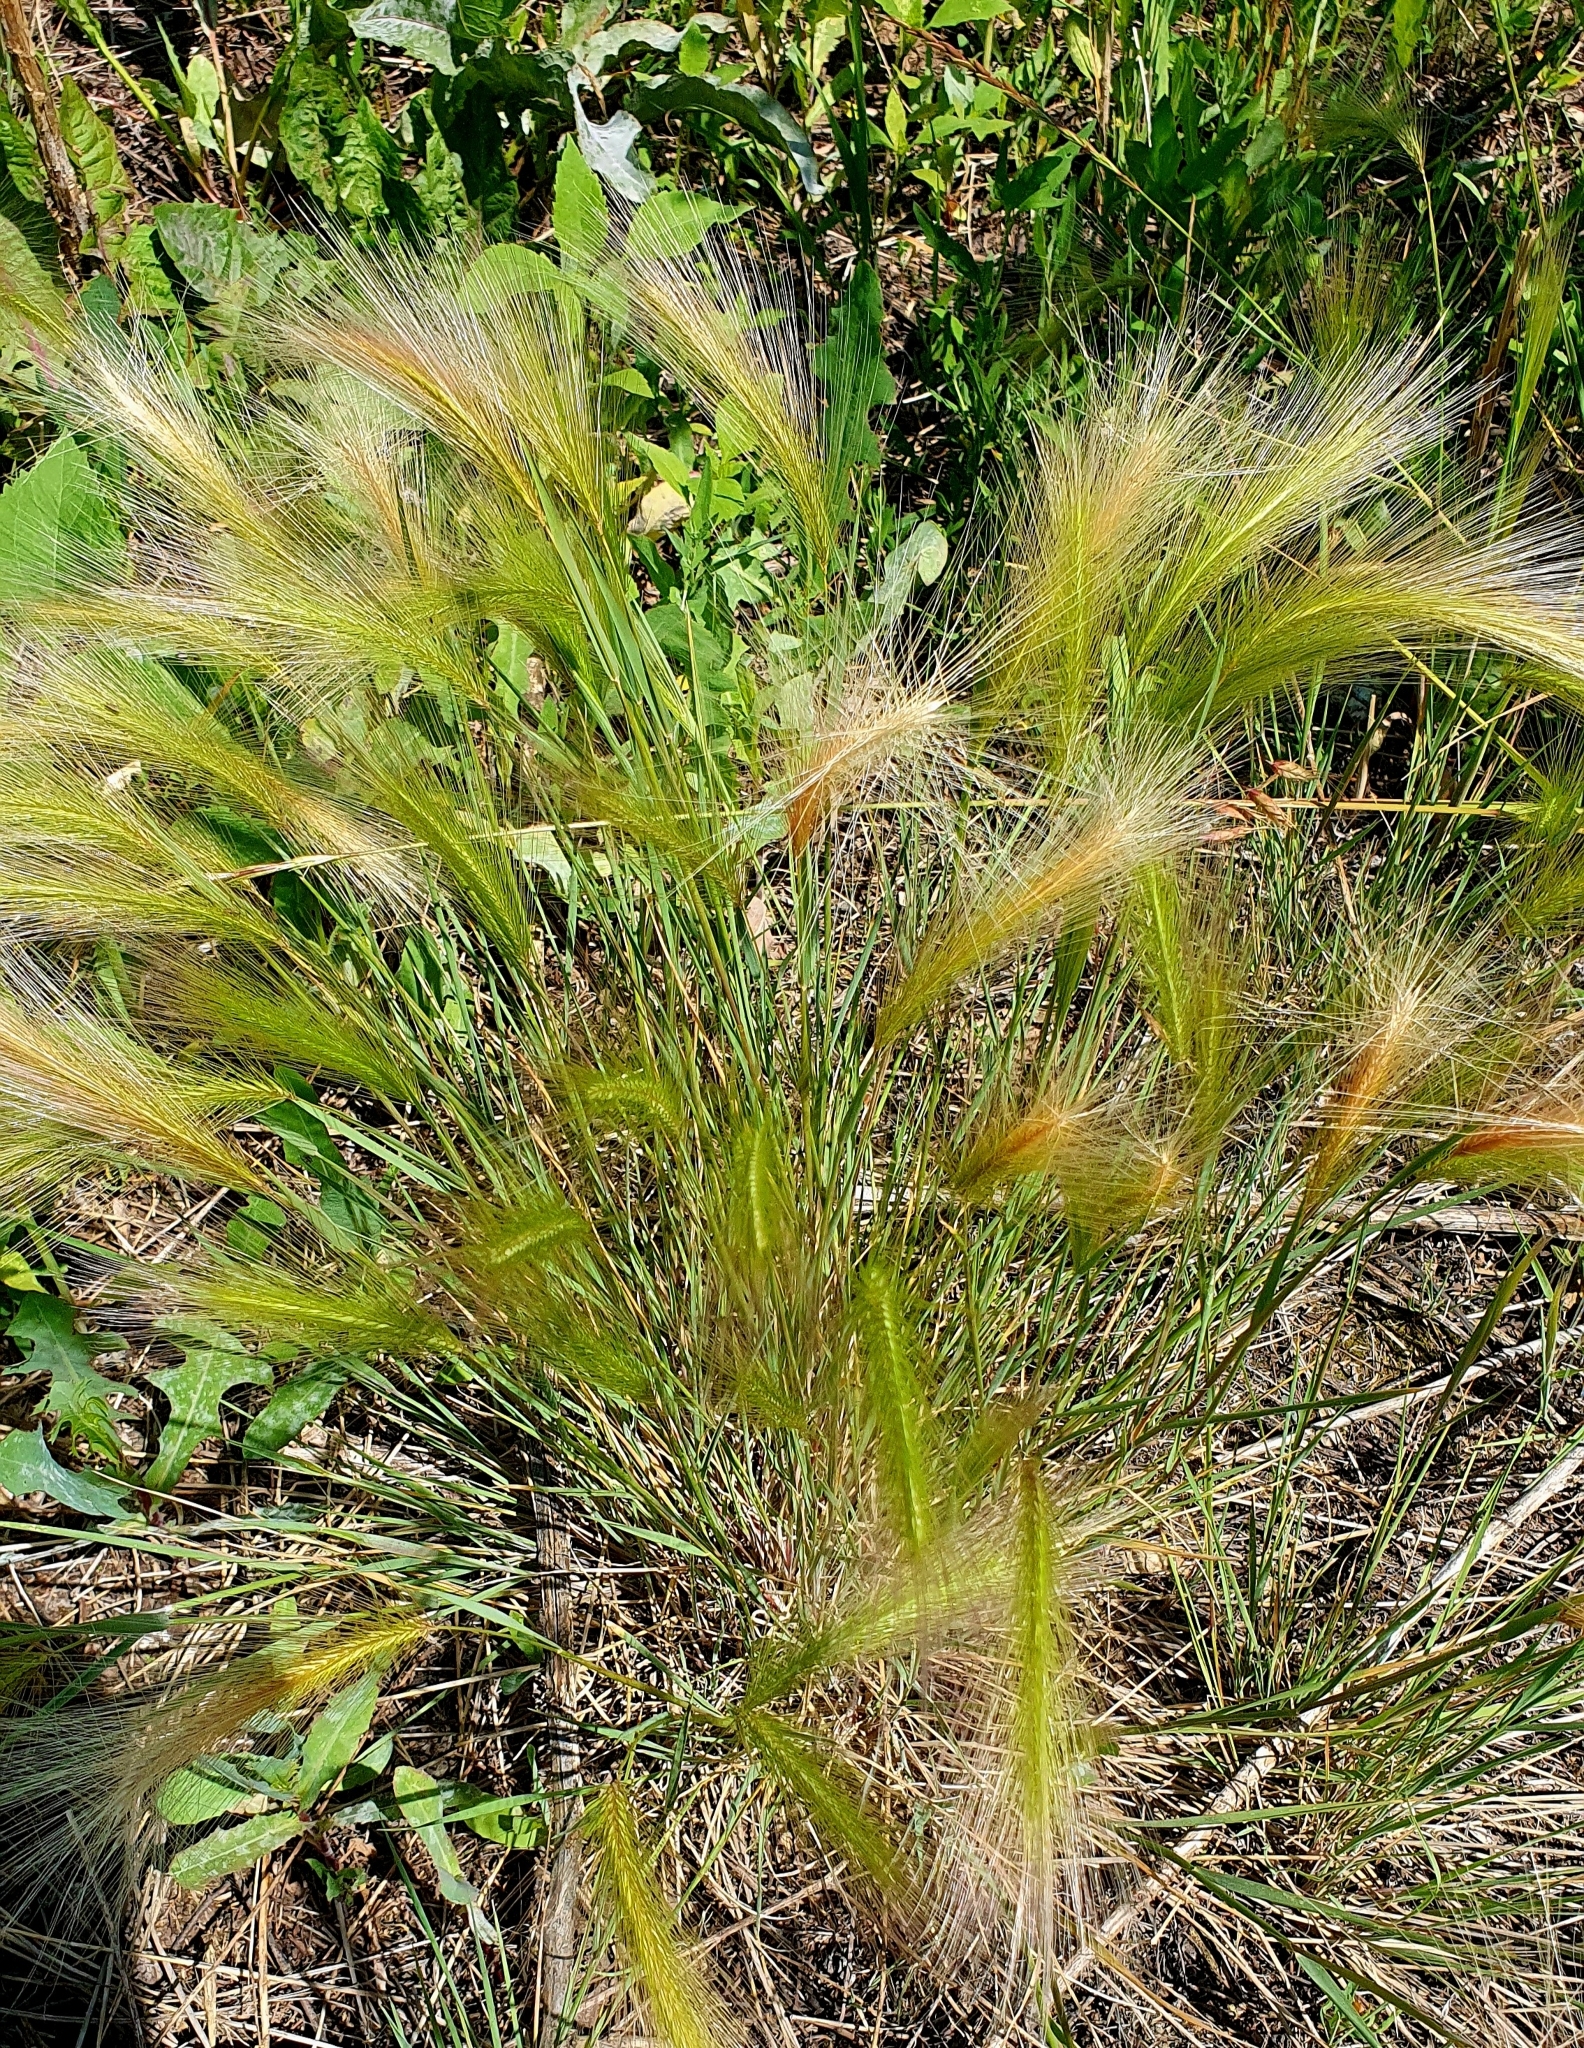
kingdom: Plantae
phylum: Tracheophyta
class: Liliopsida
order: Poales
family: Poaceae
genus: Hordeum
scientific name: Hordeum jubatum
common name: Foxtail barley
